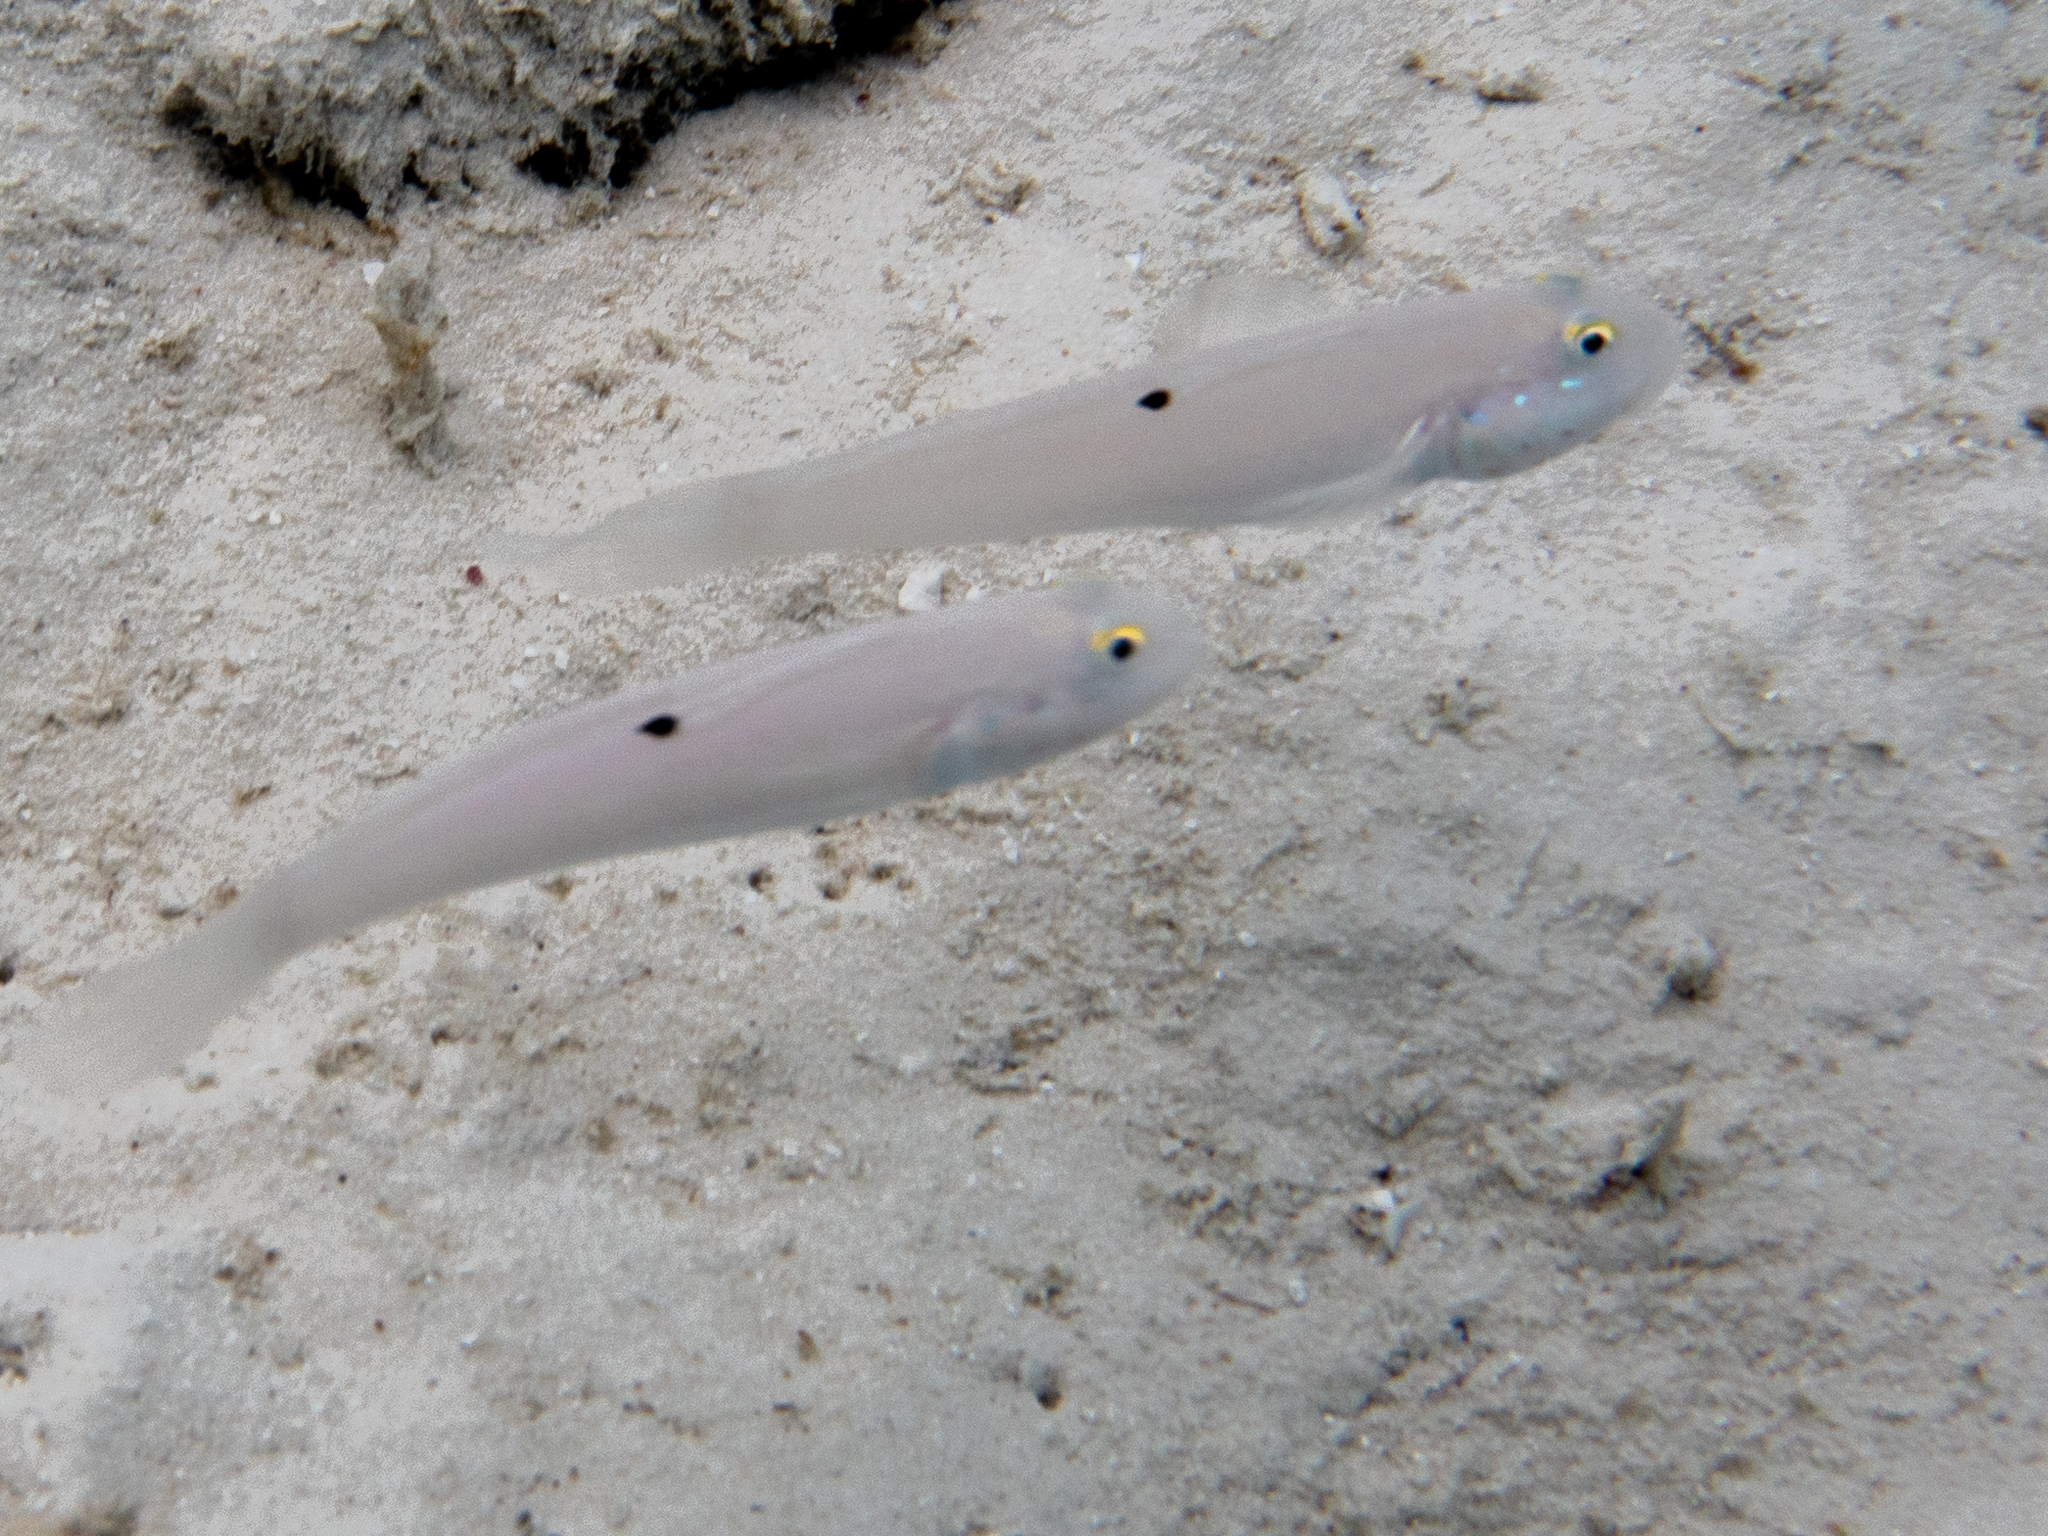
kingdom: Animalia
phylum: Chordata
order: Perciformes
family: Gobiidae
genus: Valenciennea
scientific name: Valenciennea sexguttata
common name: Sixspot goby
